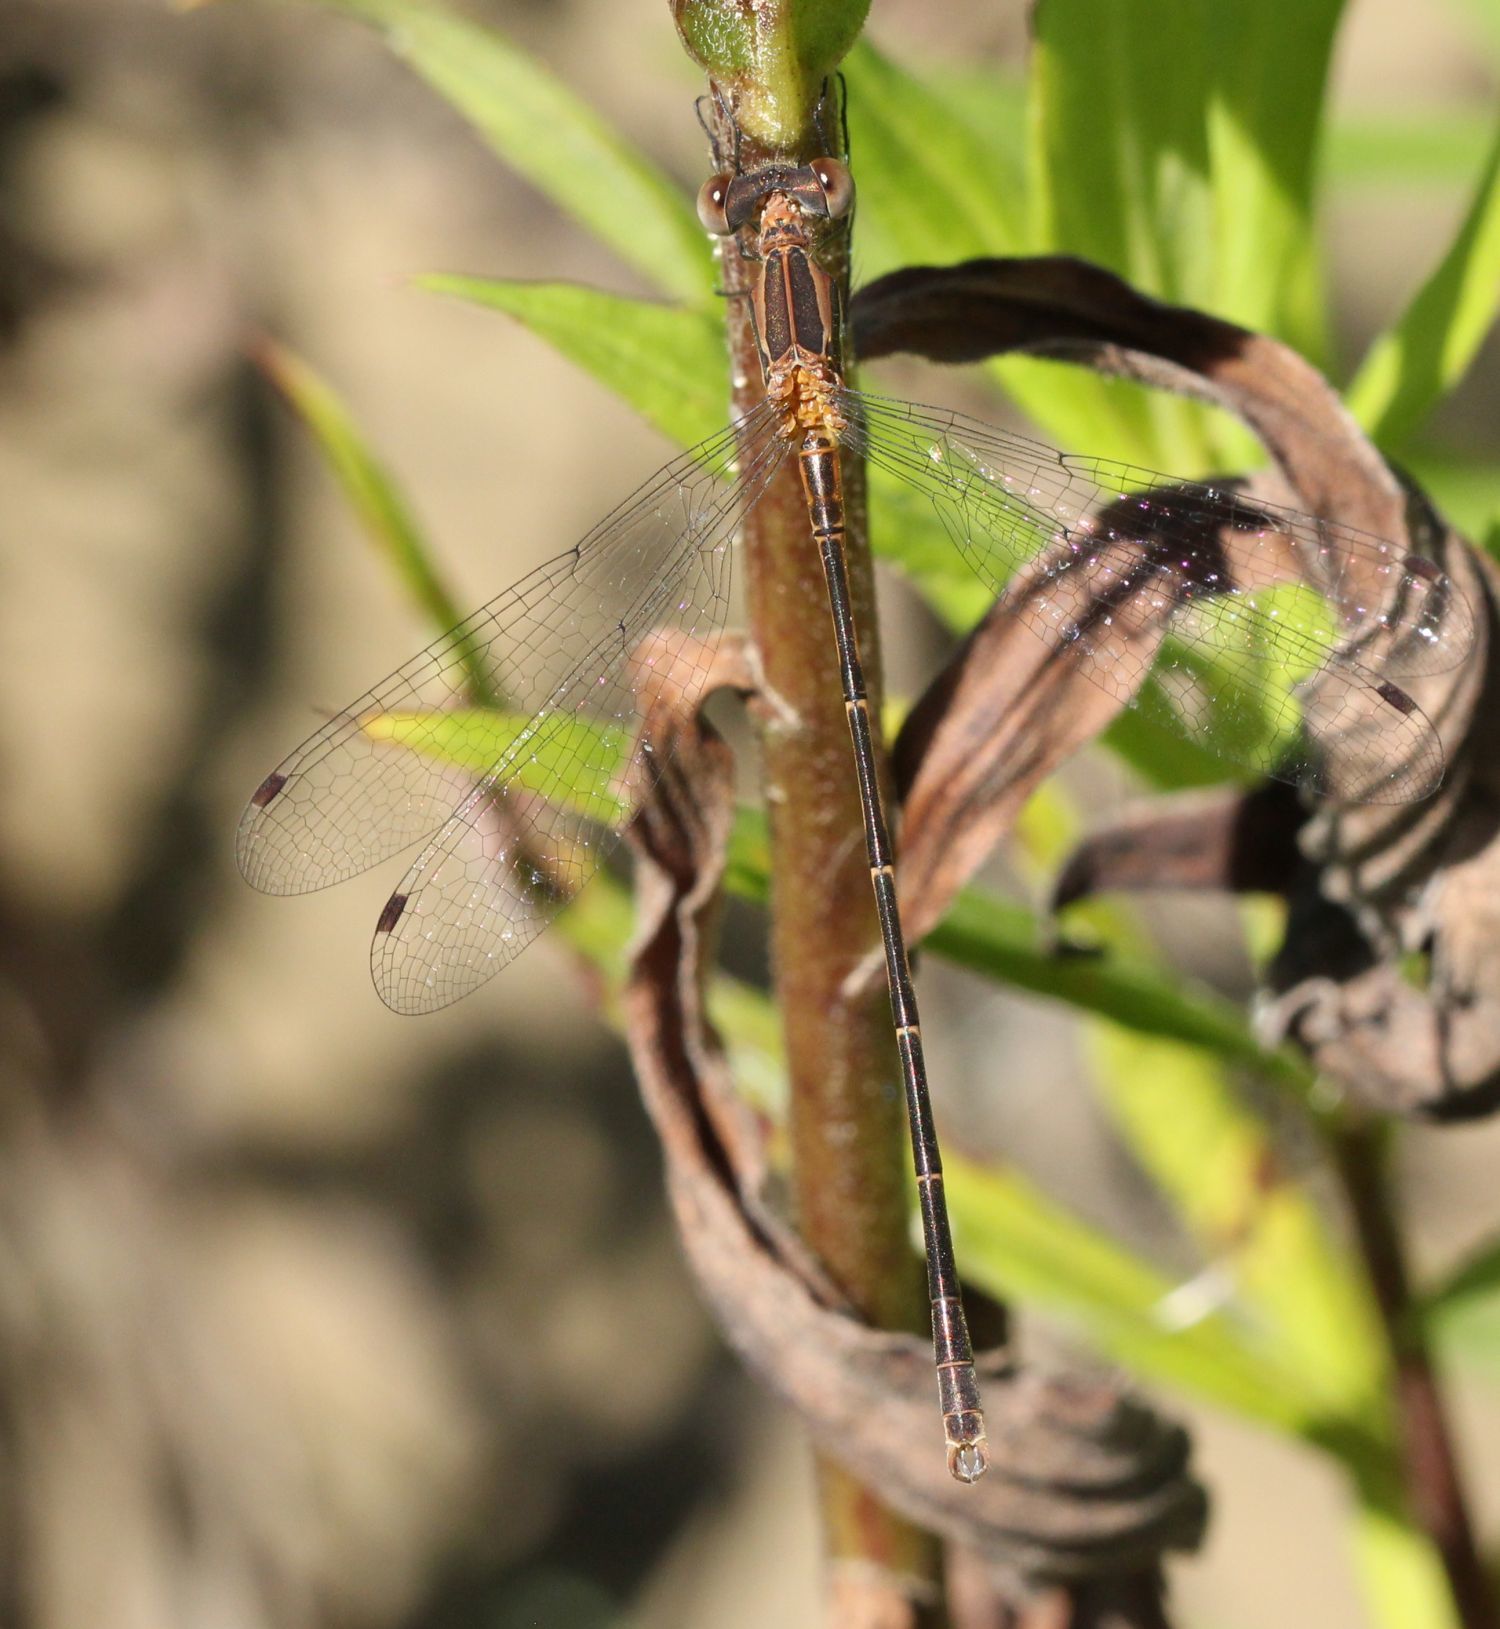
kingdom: Animalia
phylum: Arthropoda
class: Insecta
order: Odonata
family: Lestidae
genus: Lestes
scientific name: Lestes rectangularis
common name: Slender spreadwing
